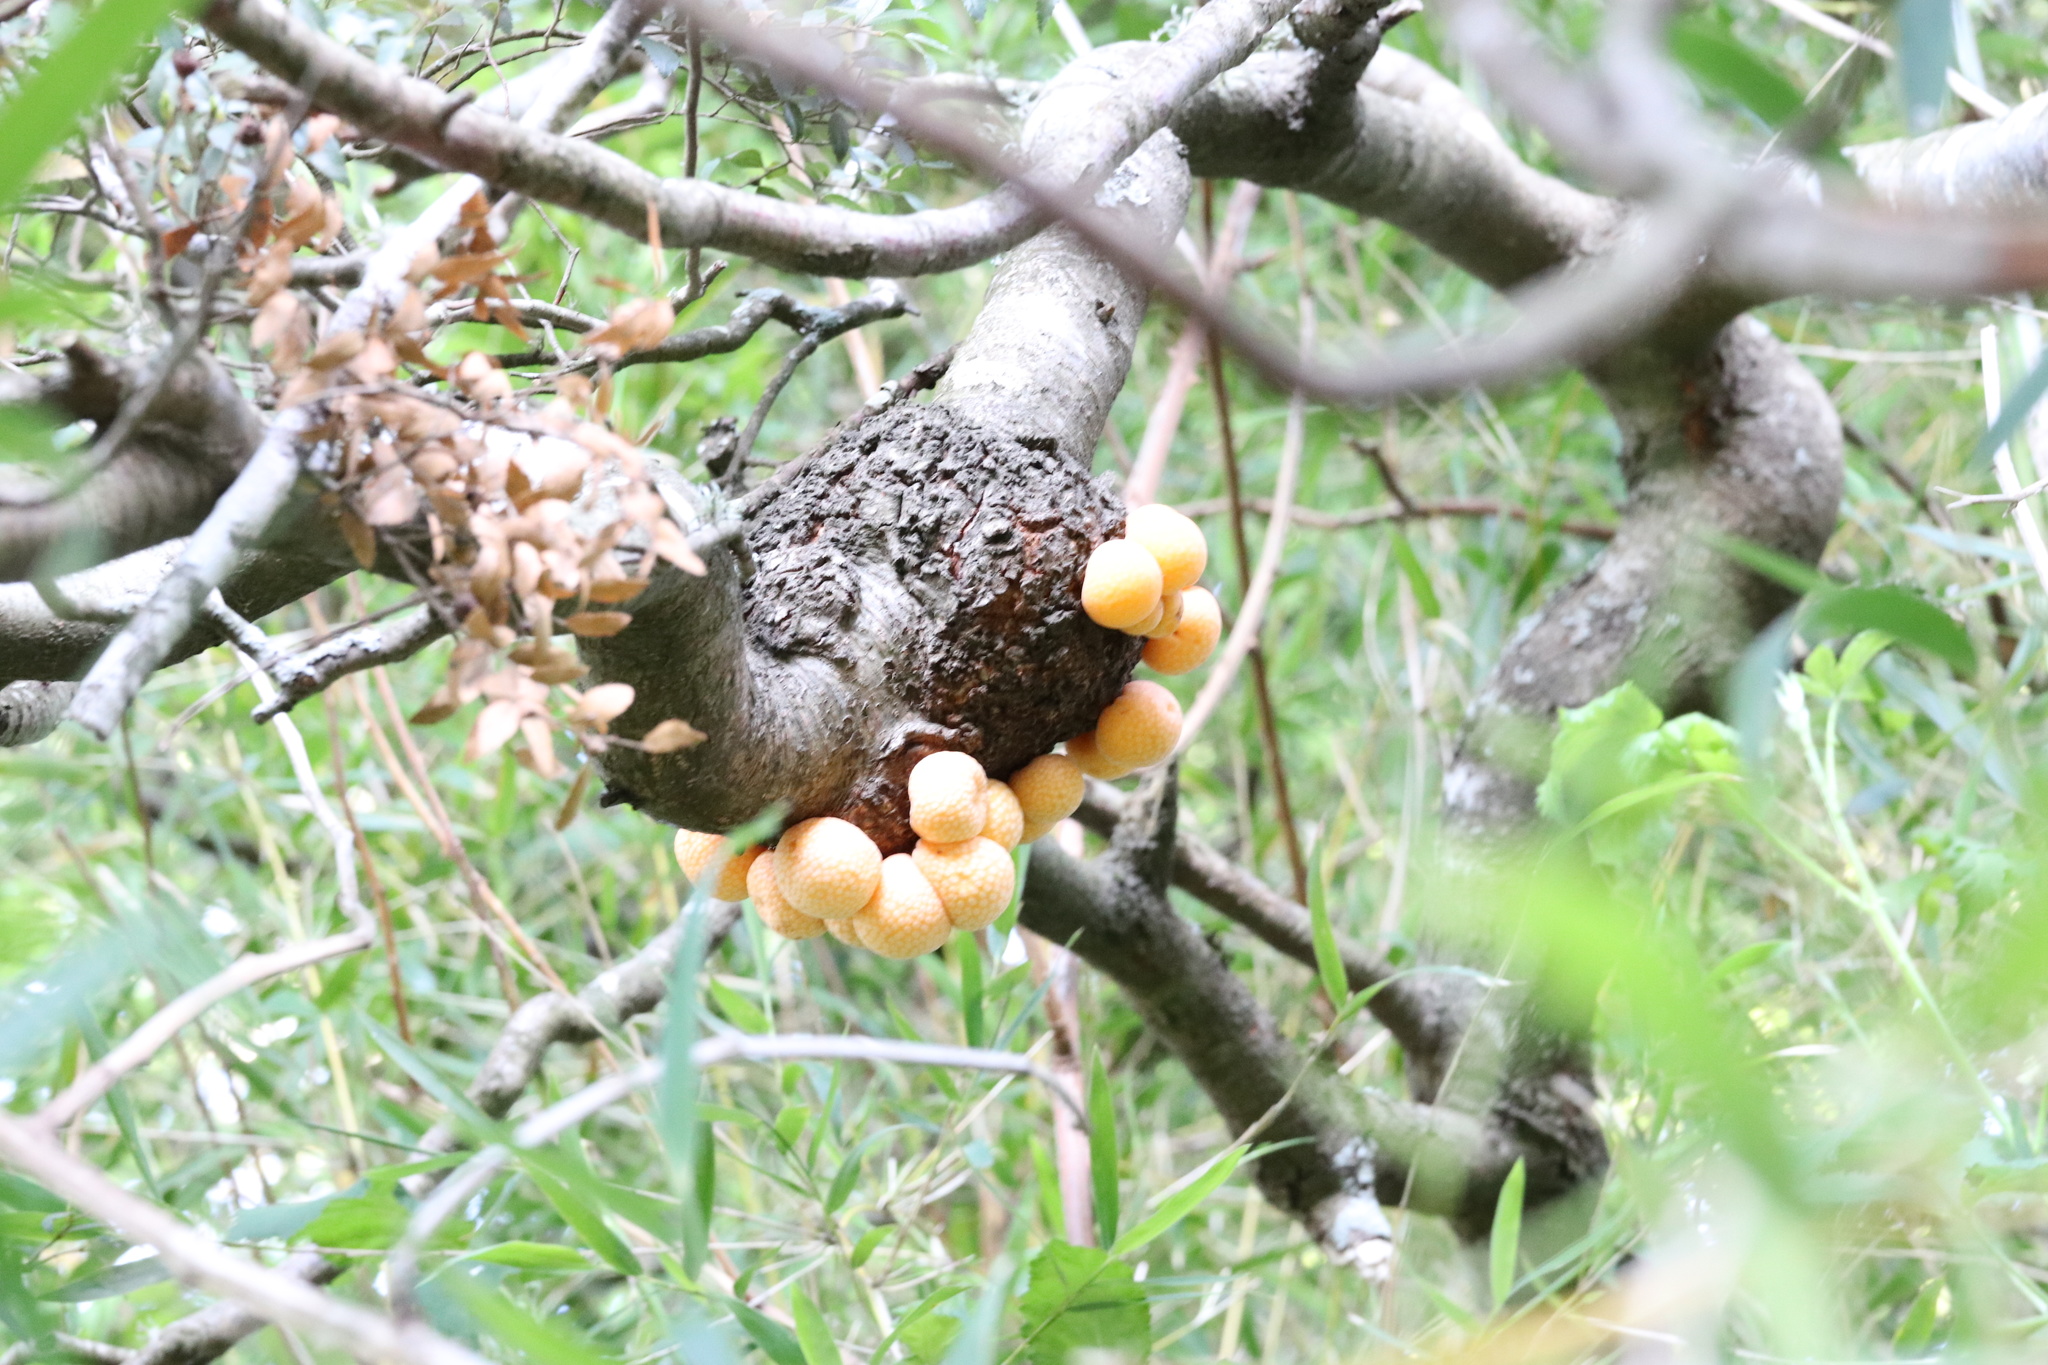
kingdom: Fungi
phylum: Ascomycota
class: Leotiomycetes
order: Cyttariales
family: Cyttariaceae
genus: Cyttaria
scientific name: Cyttaria hariotii
